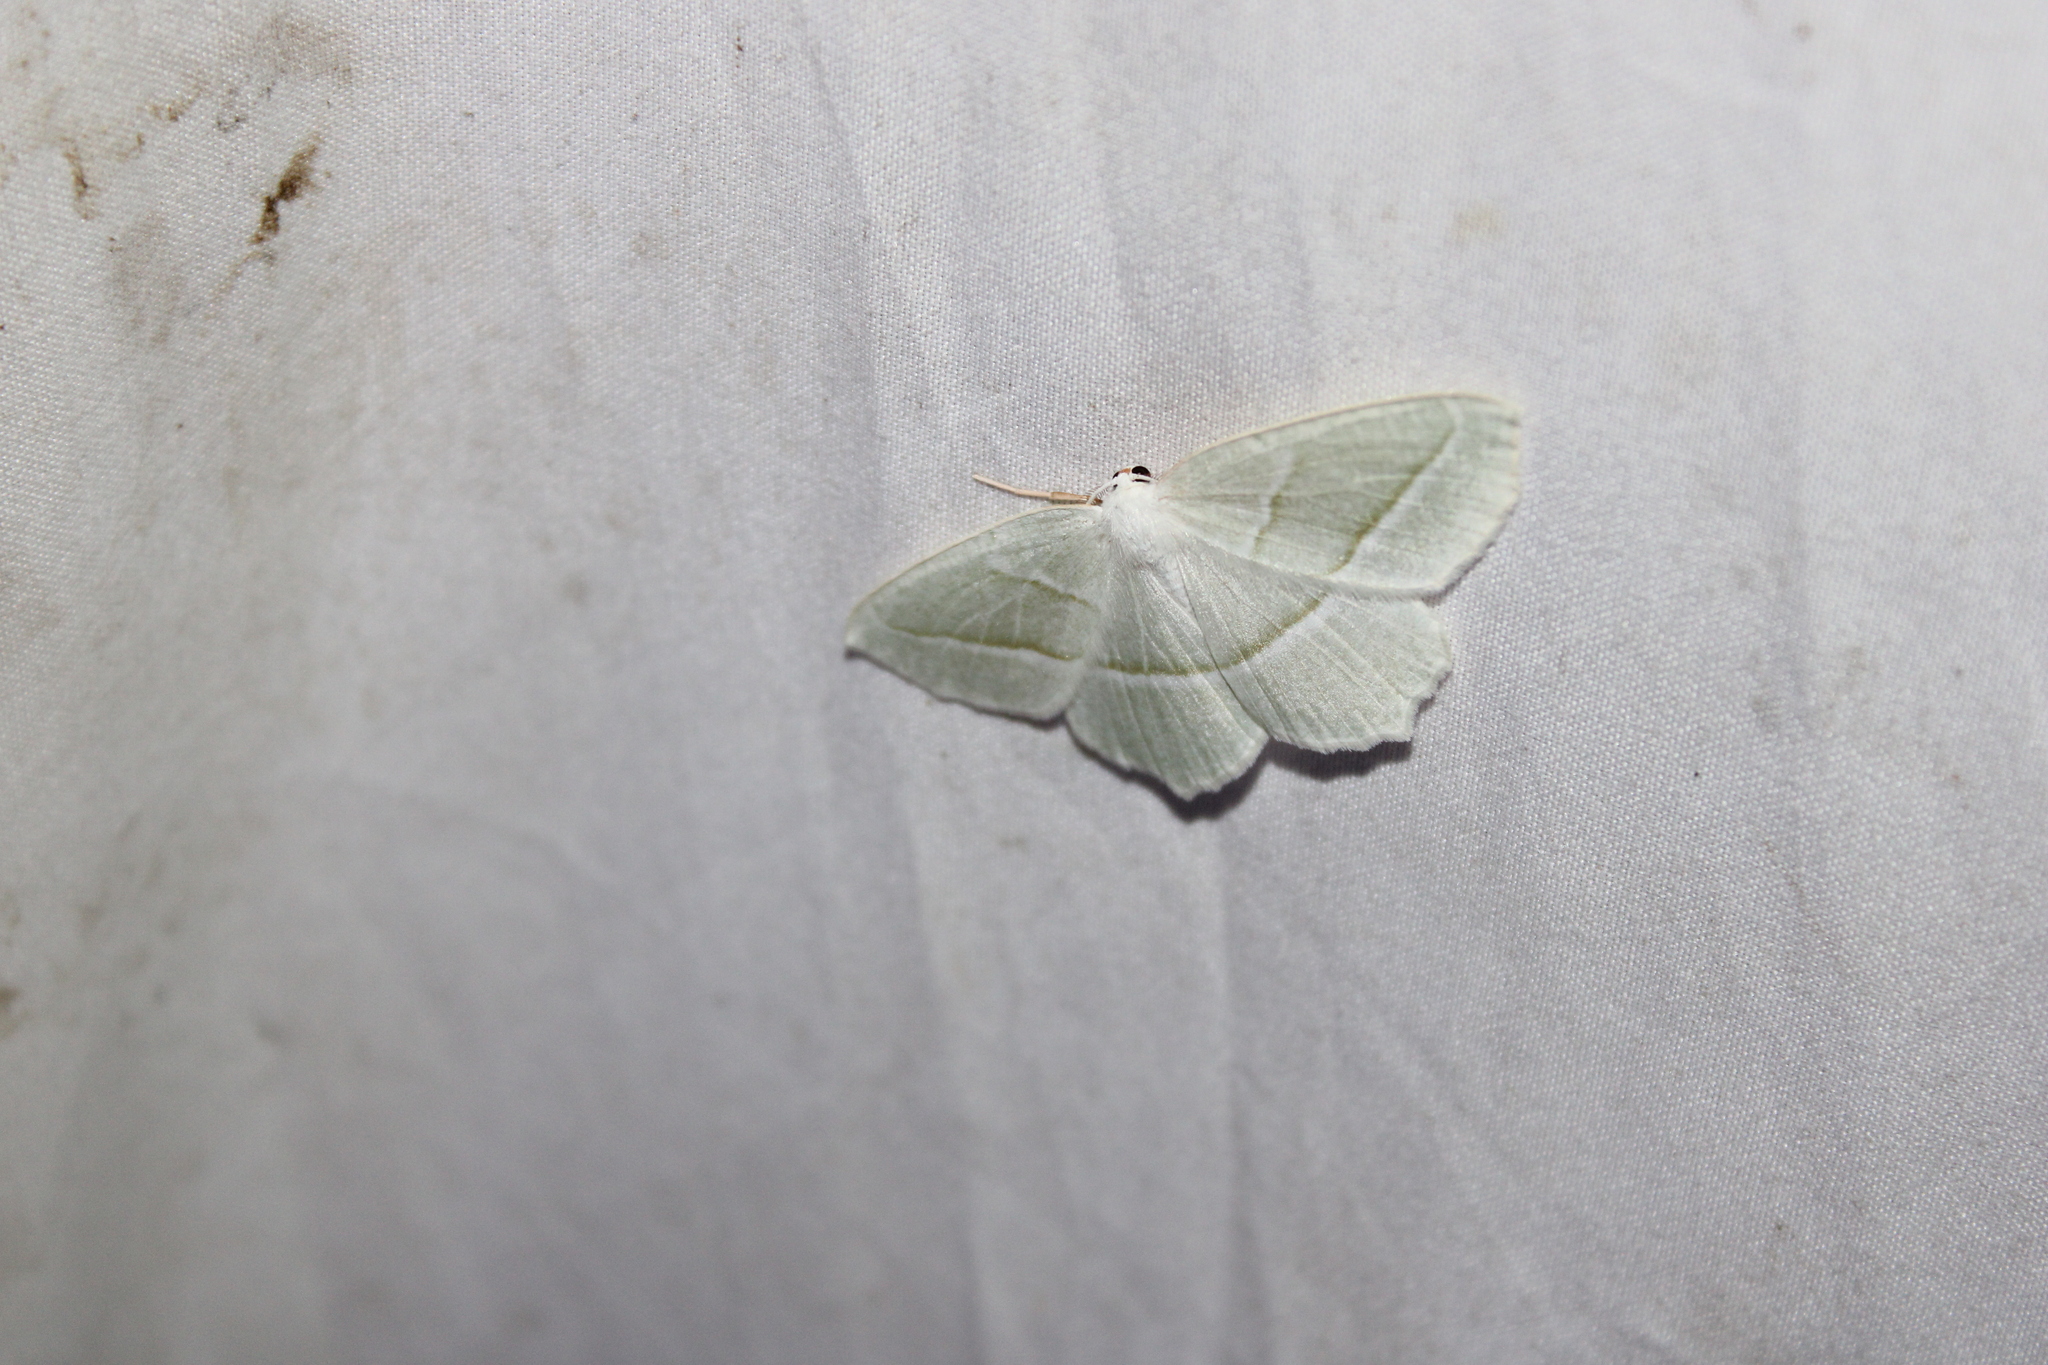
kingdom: Animalia
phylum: Arthropoda
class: Insecta
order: Lepidoptera
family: Geometridae
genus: Campaea
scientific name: Campaea perlata
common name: Fringed looper
